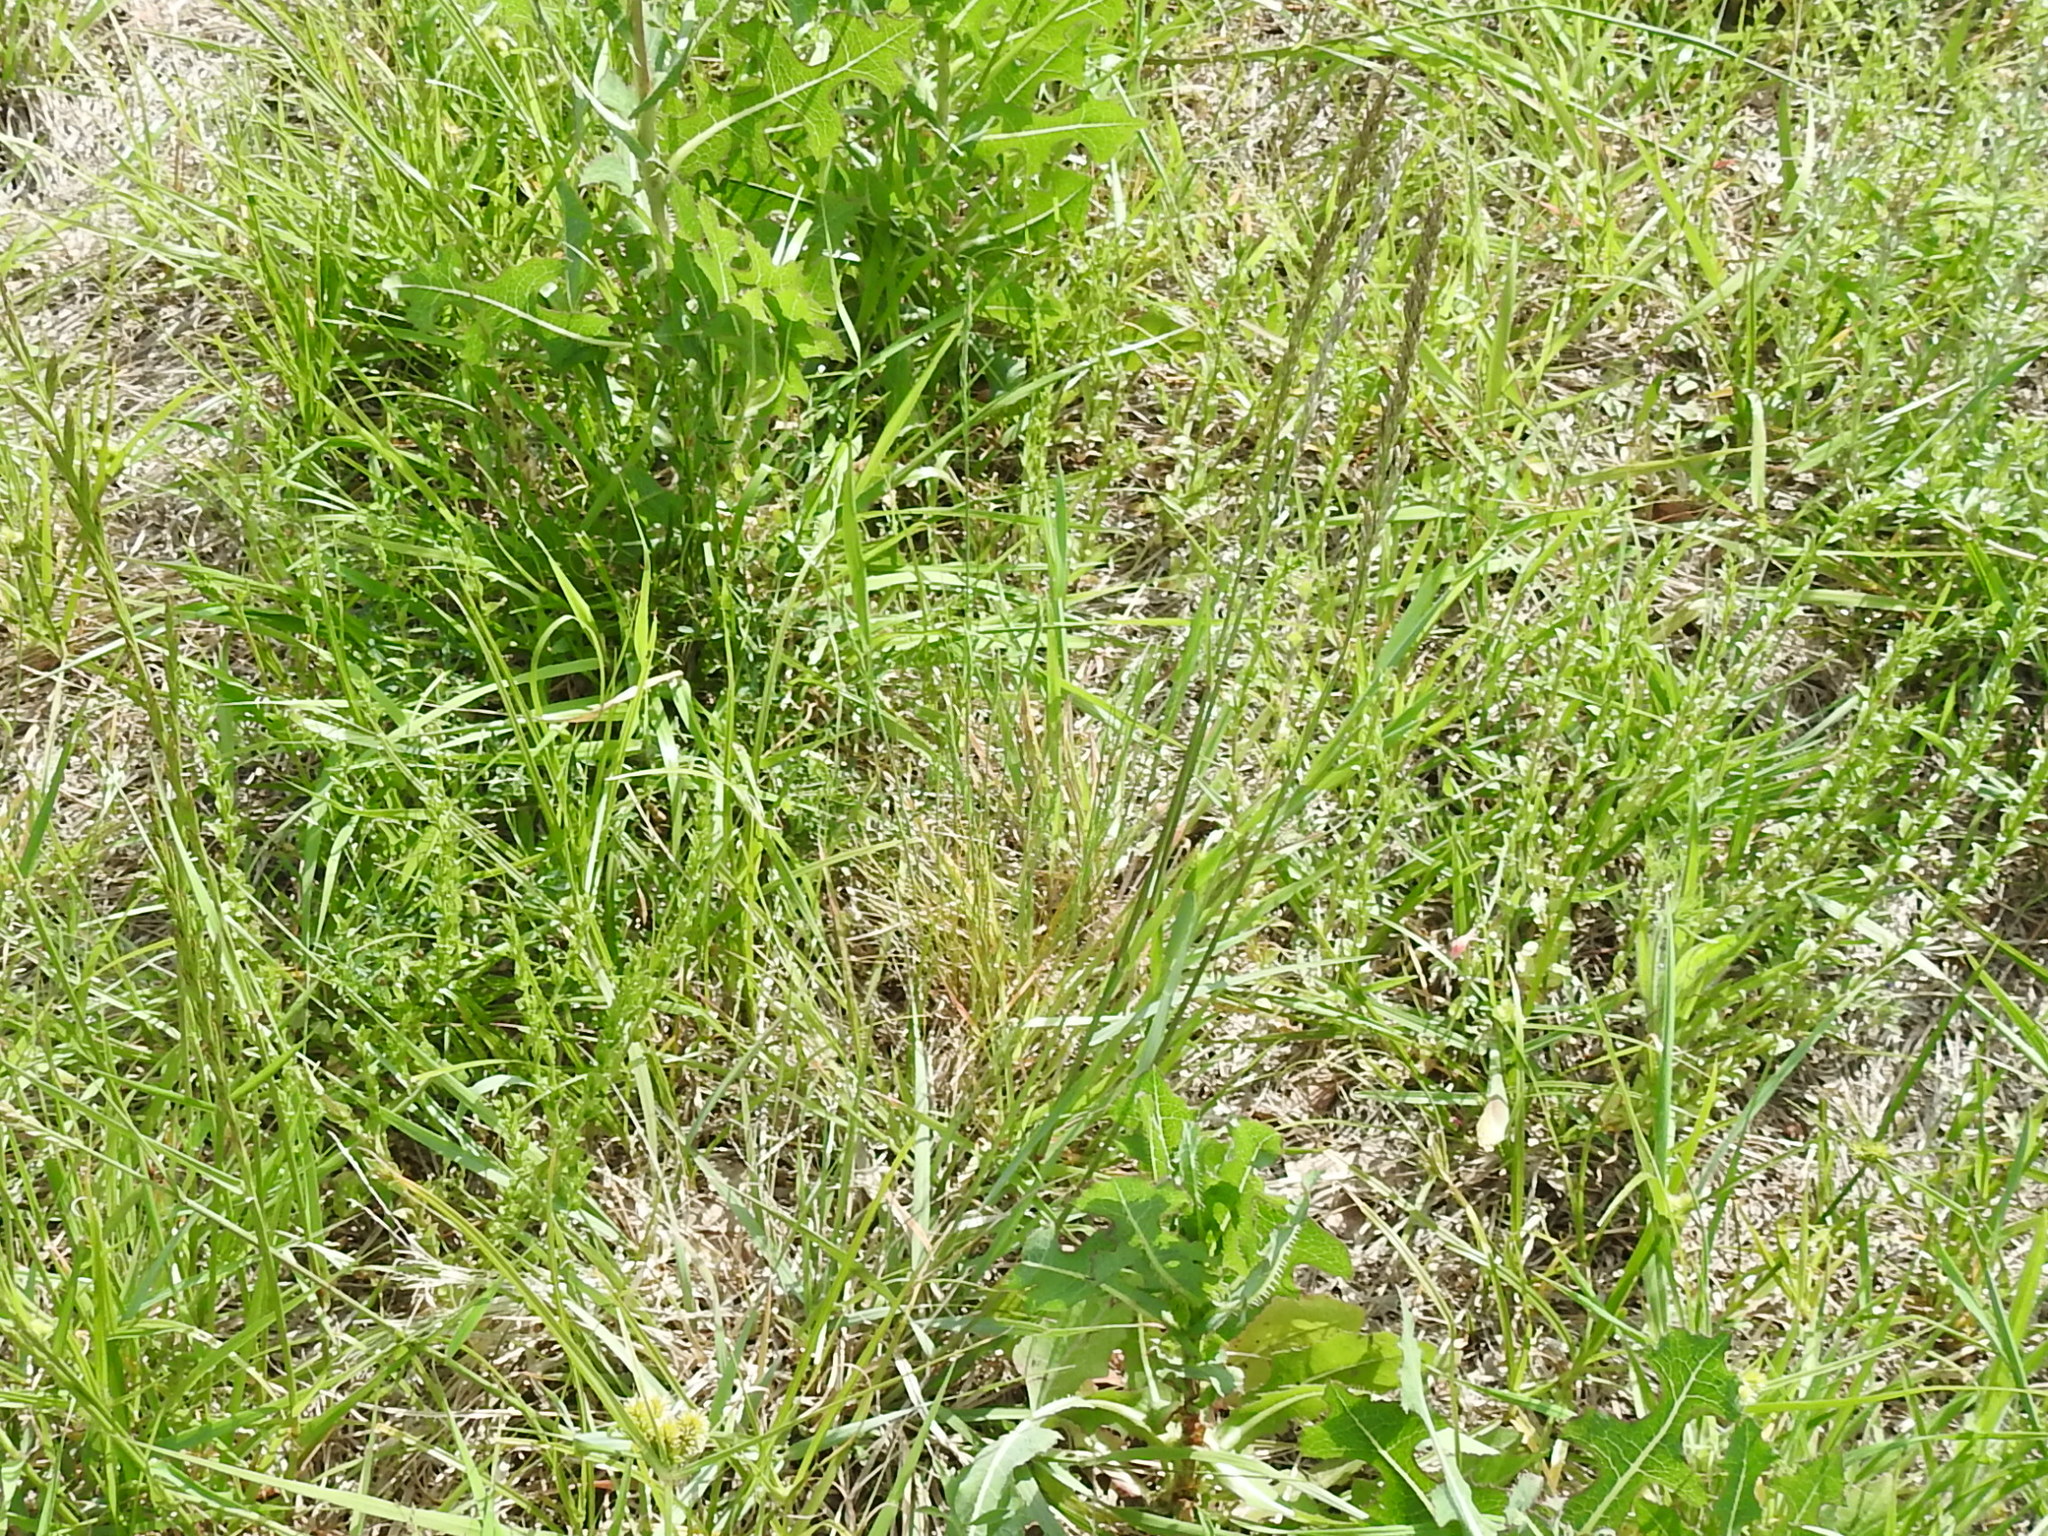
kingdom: Plantae
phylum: Tracheophyta
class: Liliopsida
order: Poales
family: Poaceae
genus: Tridens
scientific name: Tridens albescens
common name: White tridens
